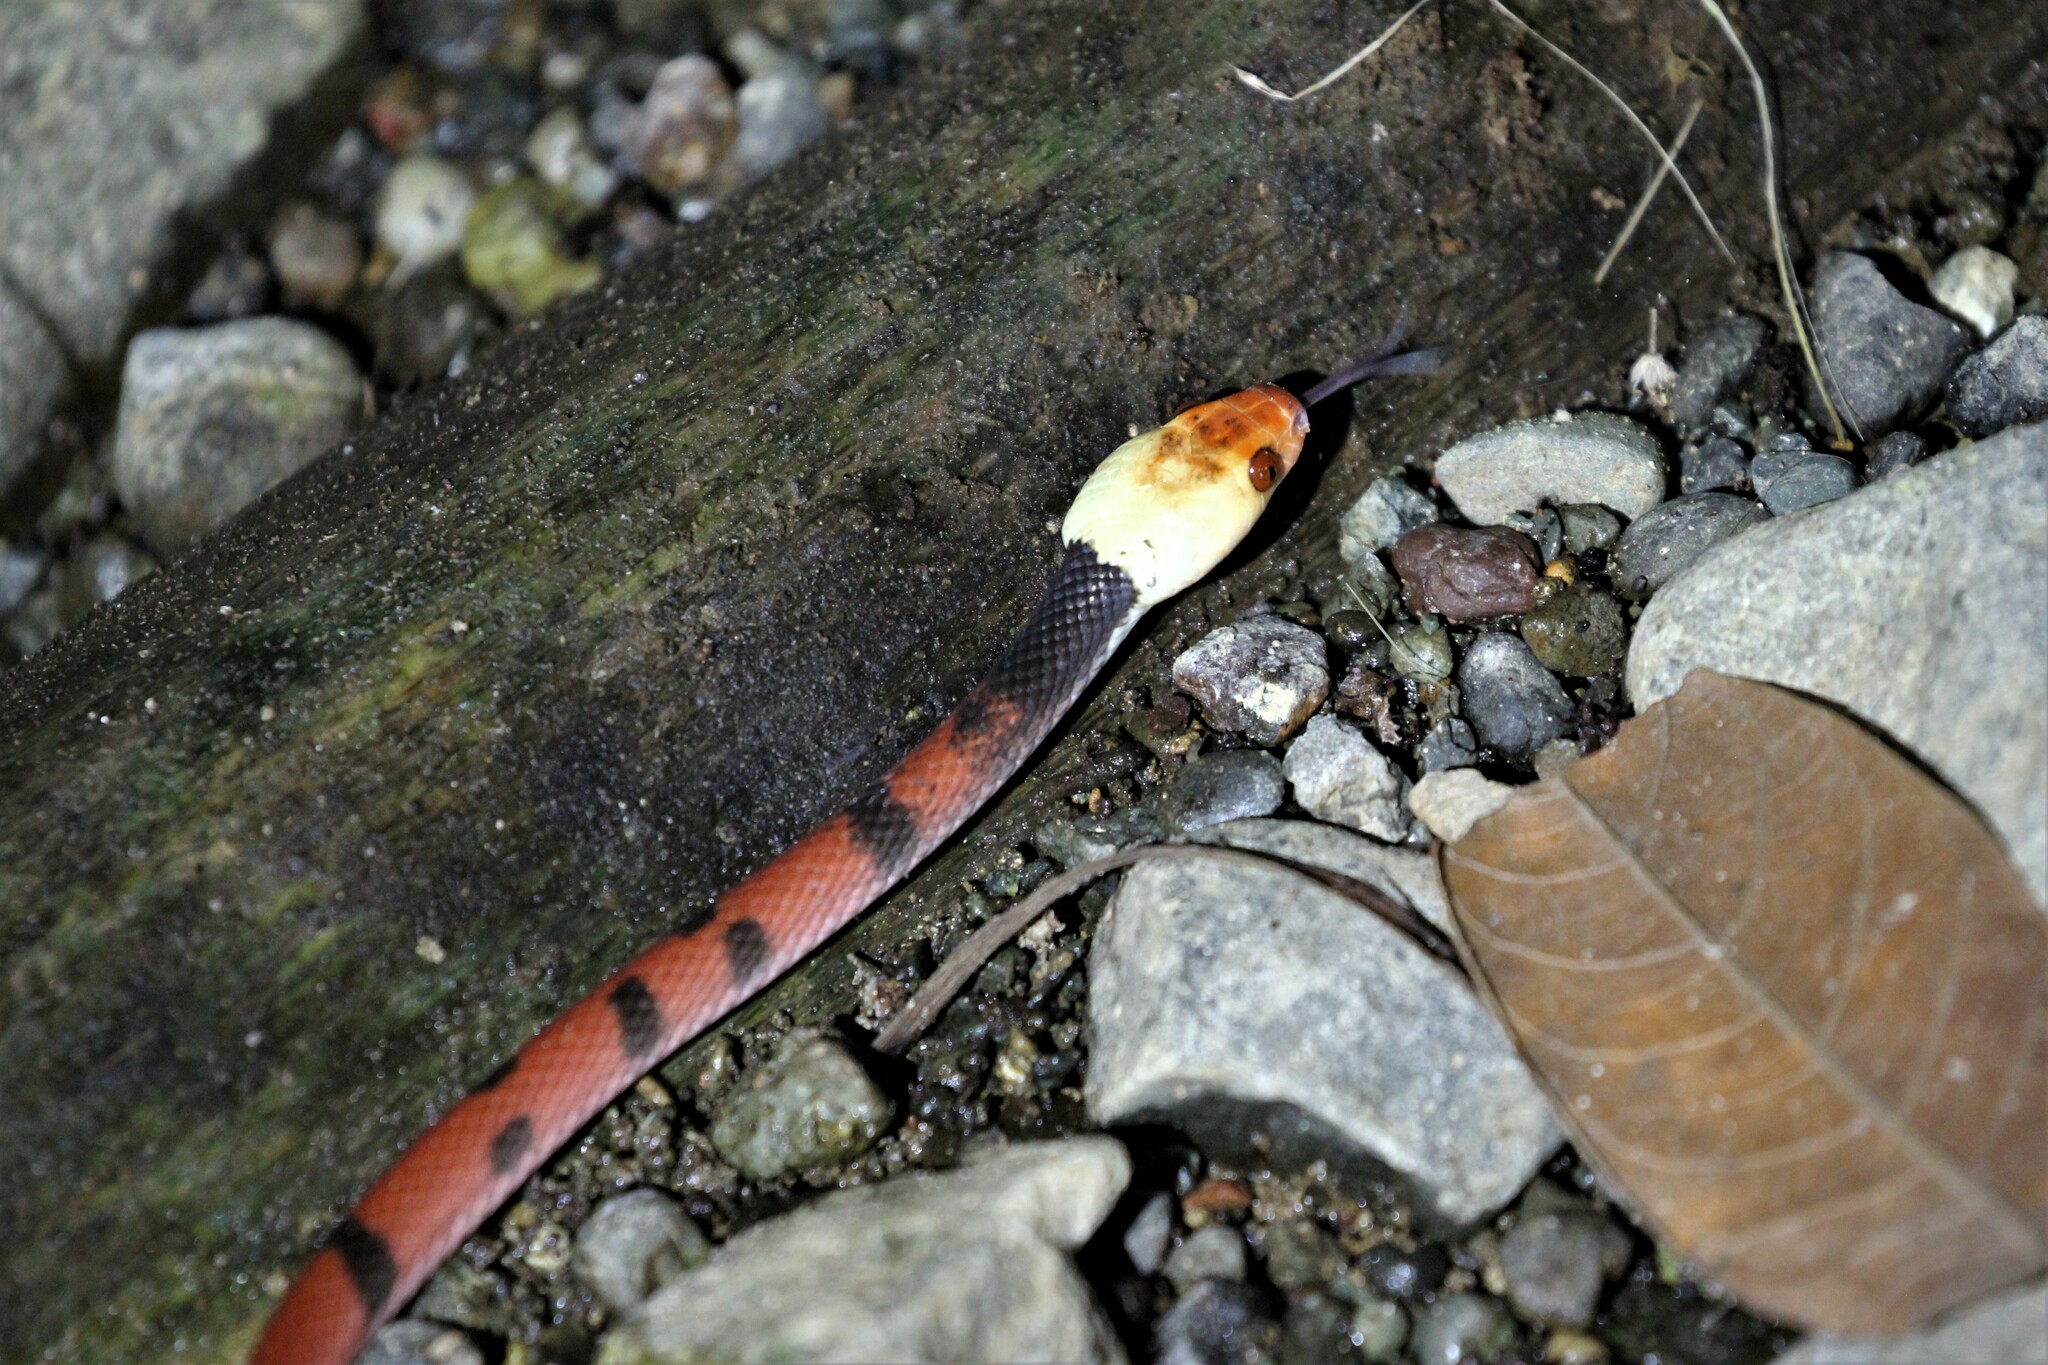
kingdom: Animalia
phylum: Chordata
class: Squamata
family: Colubridae
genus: Siphlophis
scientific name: Siphlophis compressus
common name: Tropical flat snake
